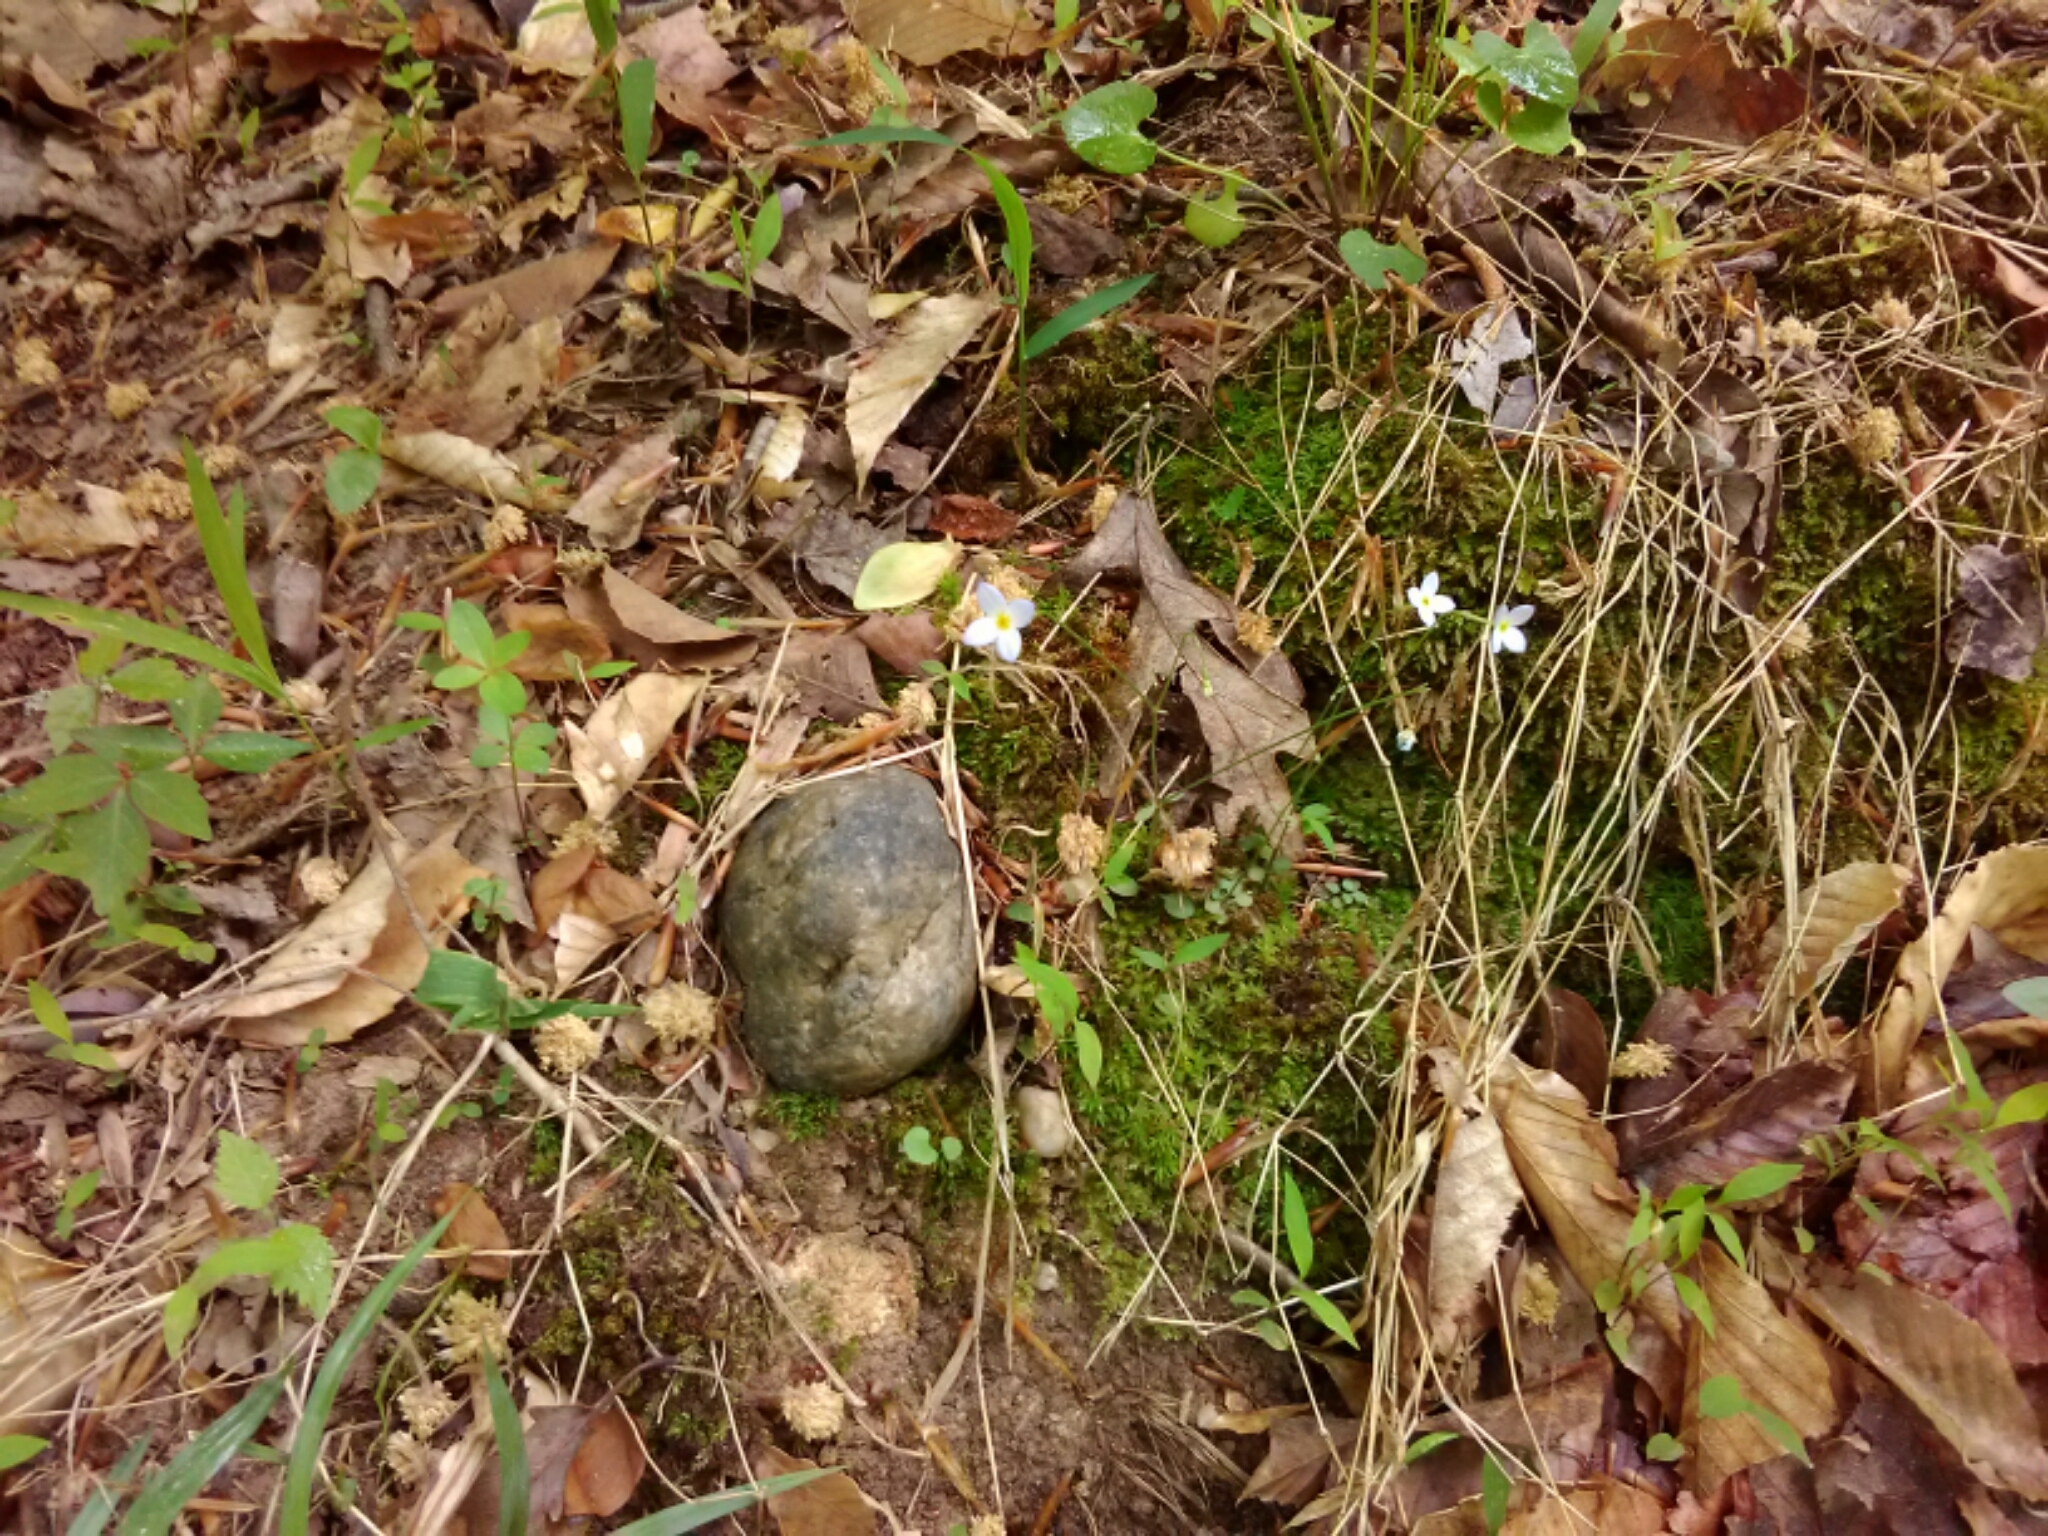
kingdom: Plantae
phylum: Tracheophyta
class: Magnoliopsida
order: Gentianales
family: Rubiaceae
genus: Houstonia
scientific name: Houstonia caerulea
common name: Bluets
